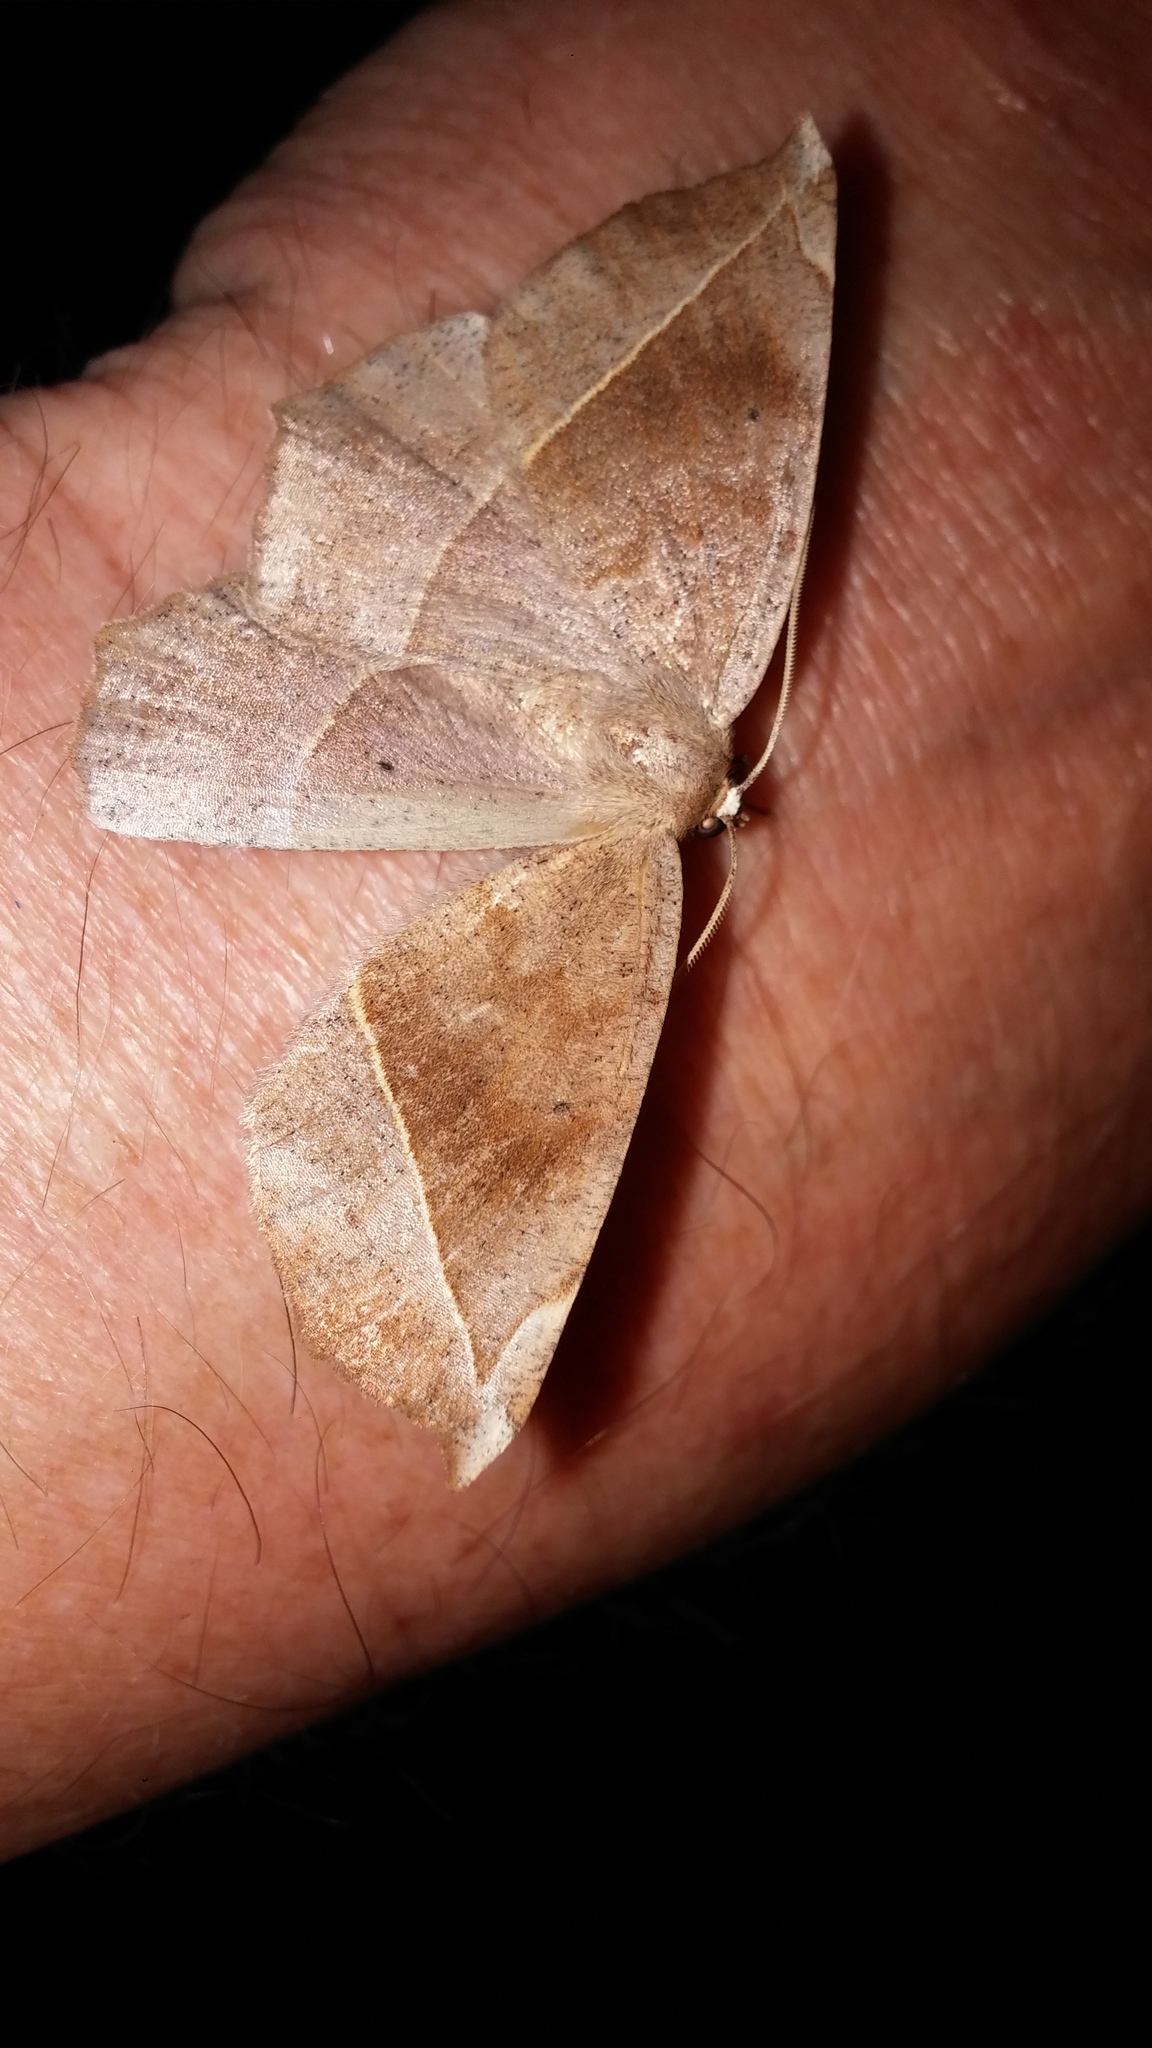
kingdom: Animalia
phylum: Arthropoda
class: Insecta
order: Lepidoptera
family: Geometridae
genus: Eutrapela
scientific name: Eutrapela clemataria
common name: Curved-toothed geometer
